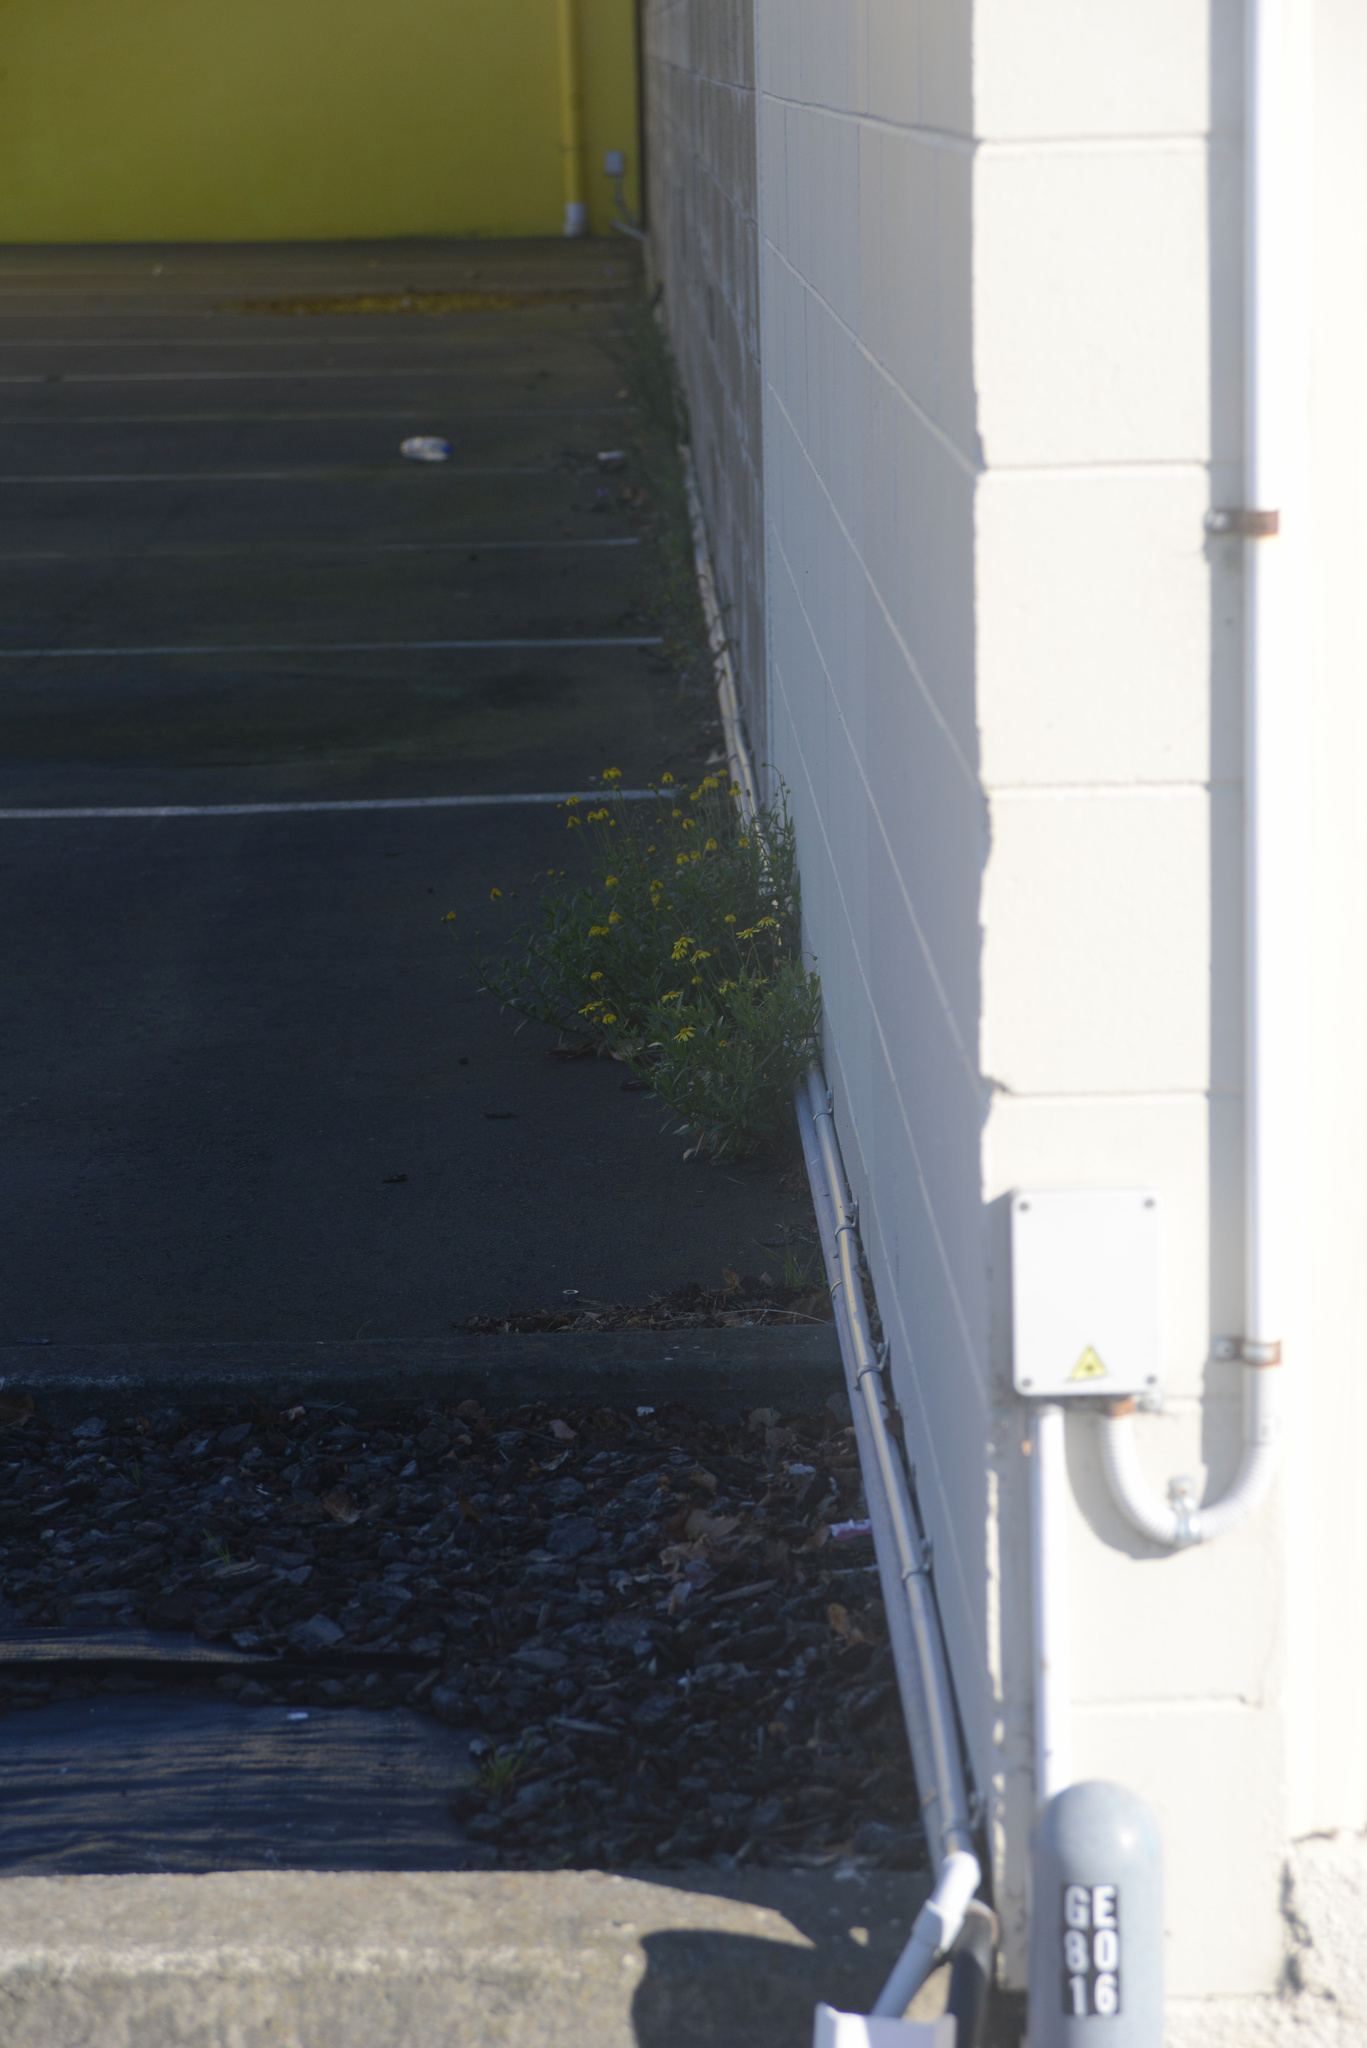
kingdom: Plantae
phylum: Tracheophyta
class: Magnoliopsida
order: Asterales
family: Asteraceae
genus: Senecio
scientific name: Senecio skirrhodon
